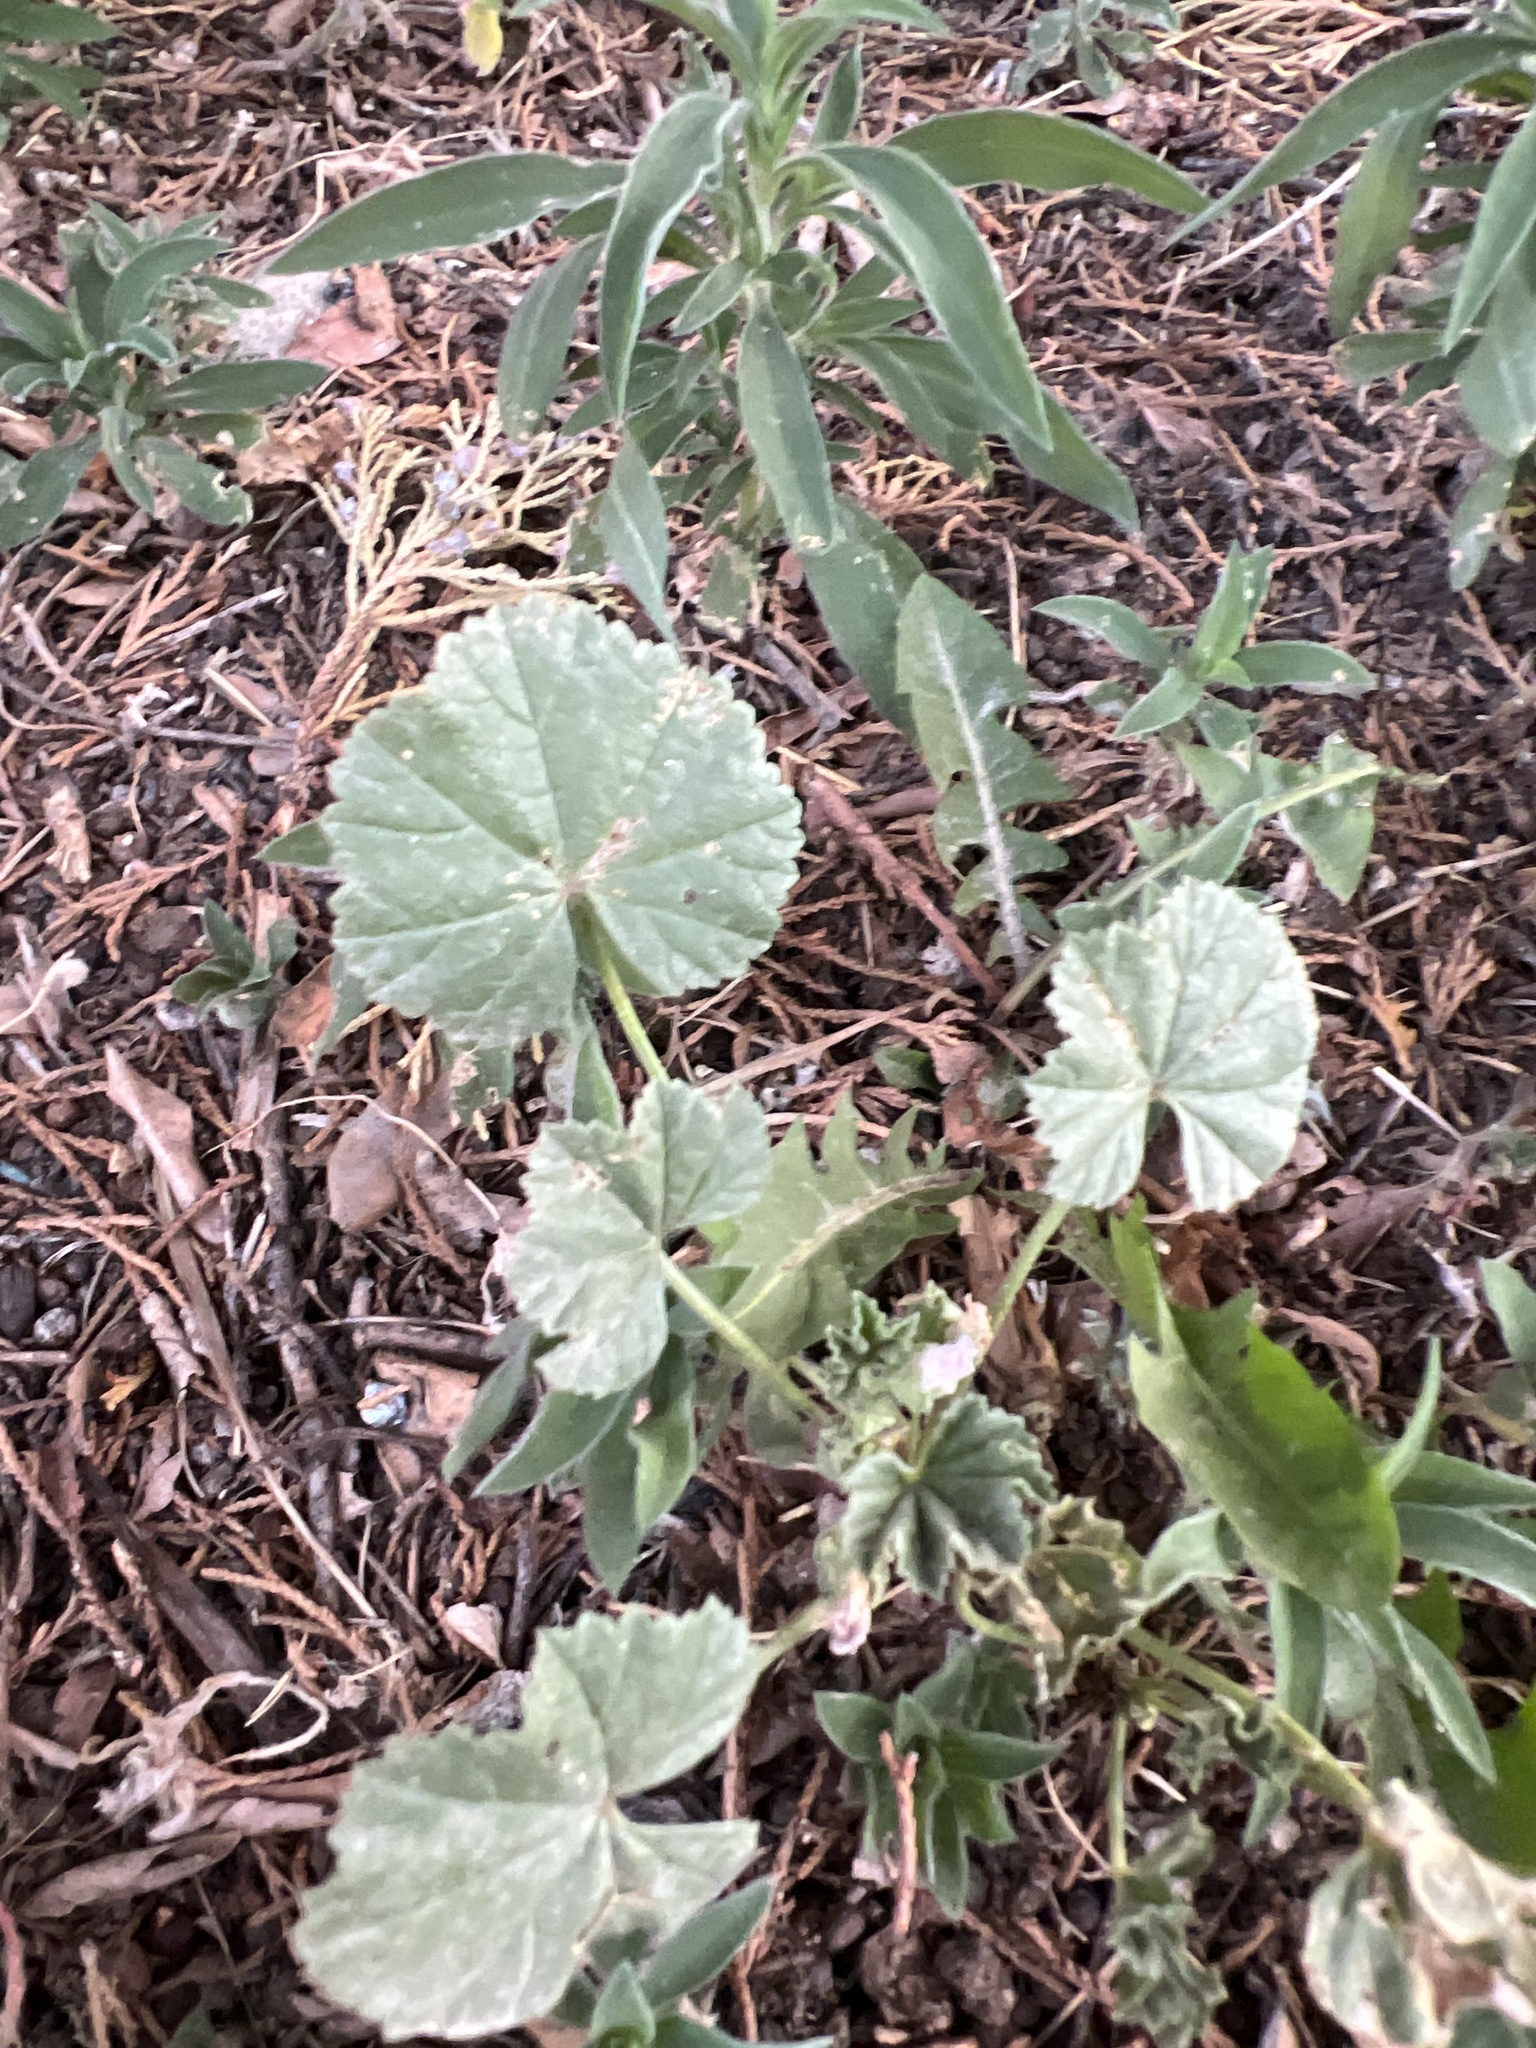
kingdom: Plantae
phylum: Tracheophyta
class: Magnoliopsida
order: Malvales
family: Malvaceae
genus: Malva
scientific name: Malva neglecta
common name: Common mallow
